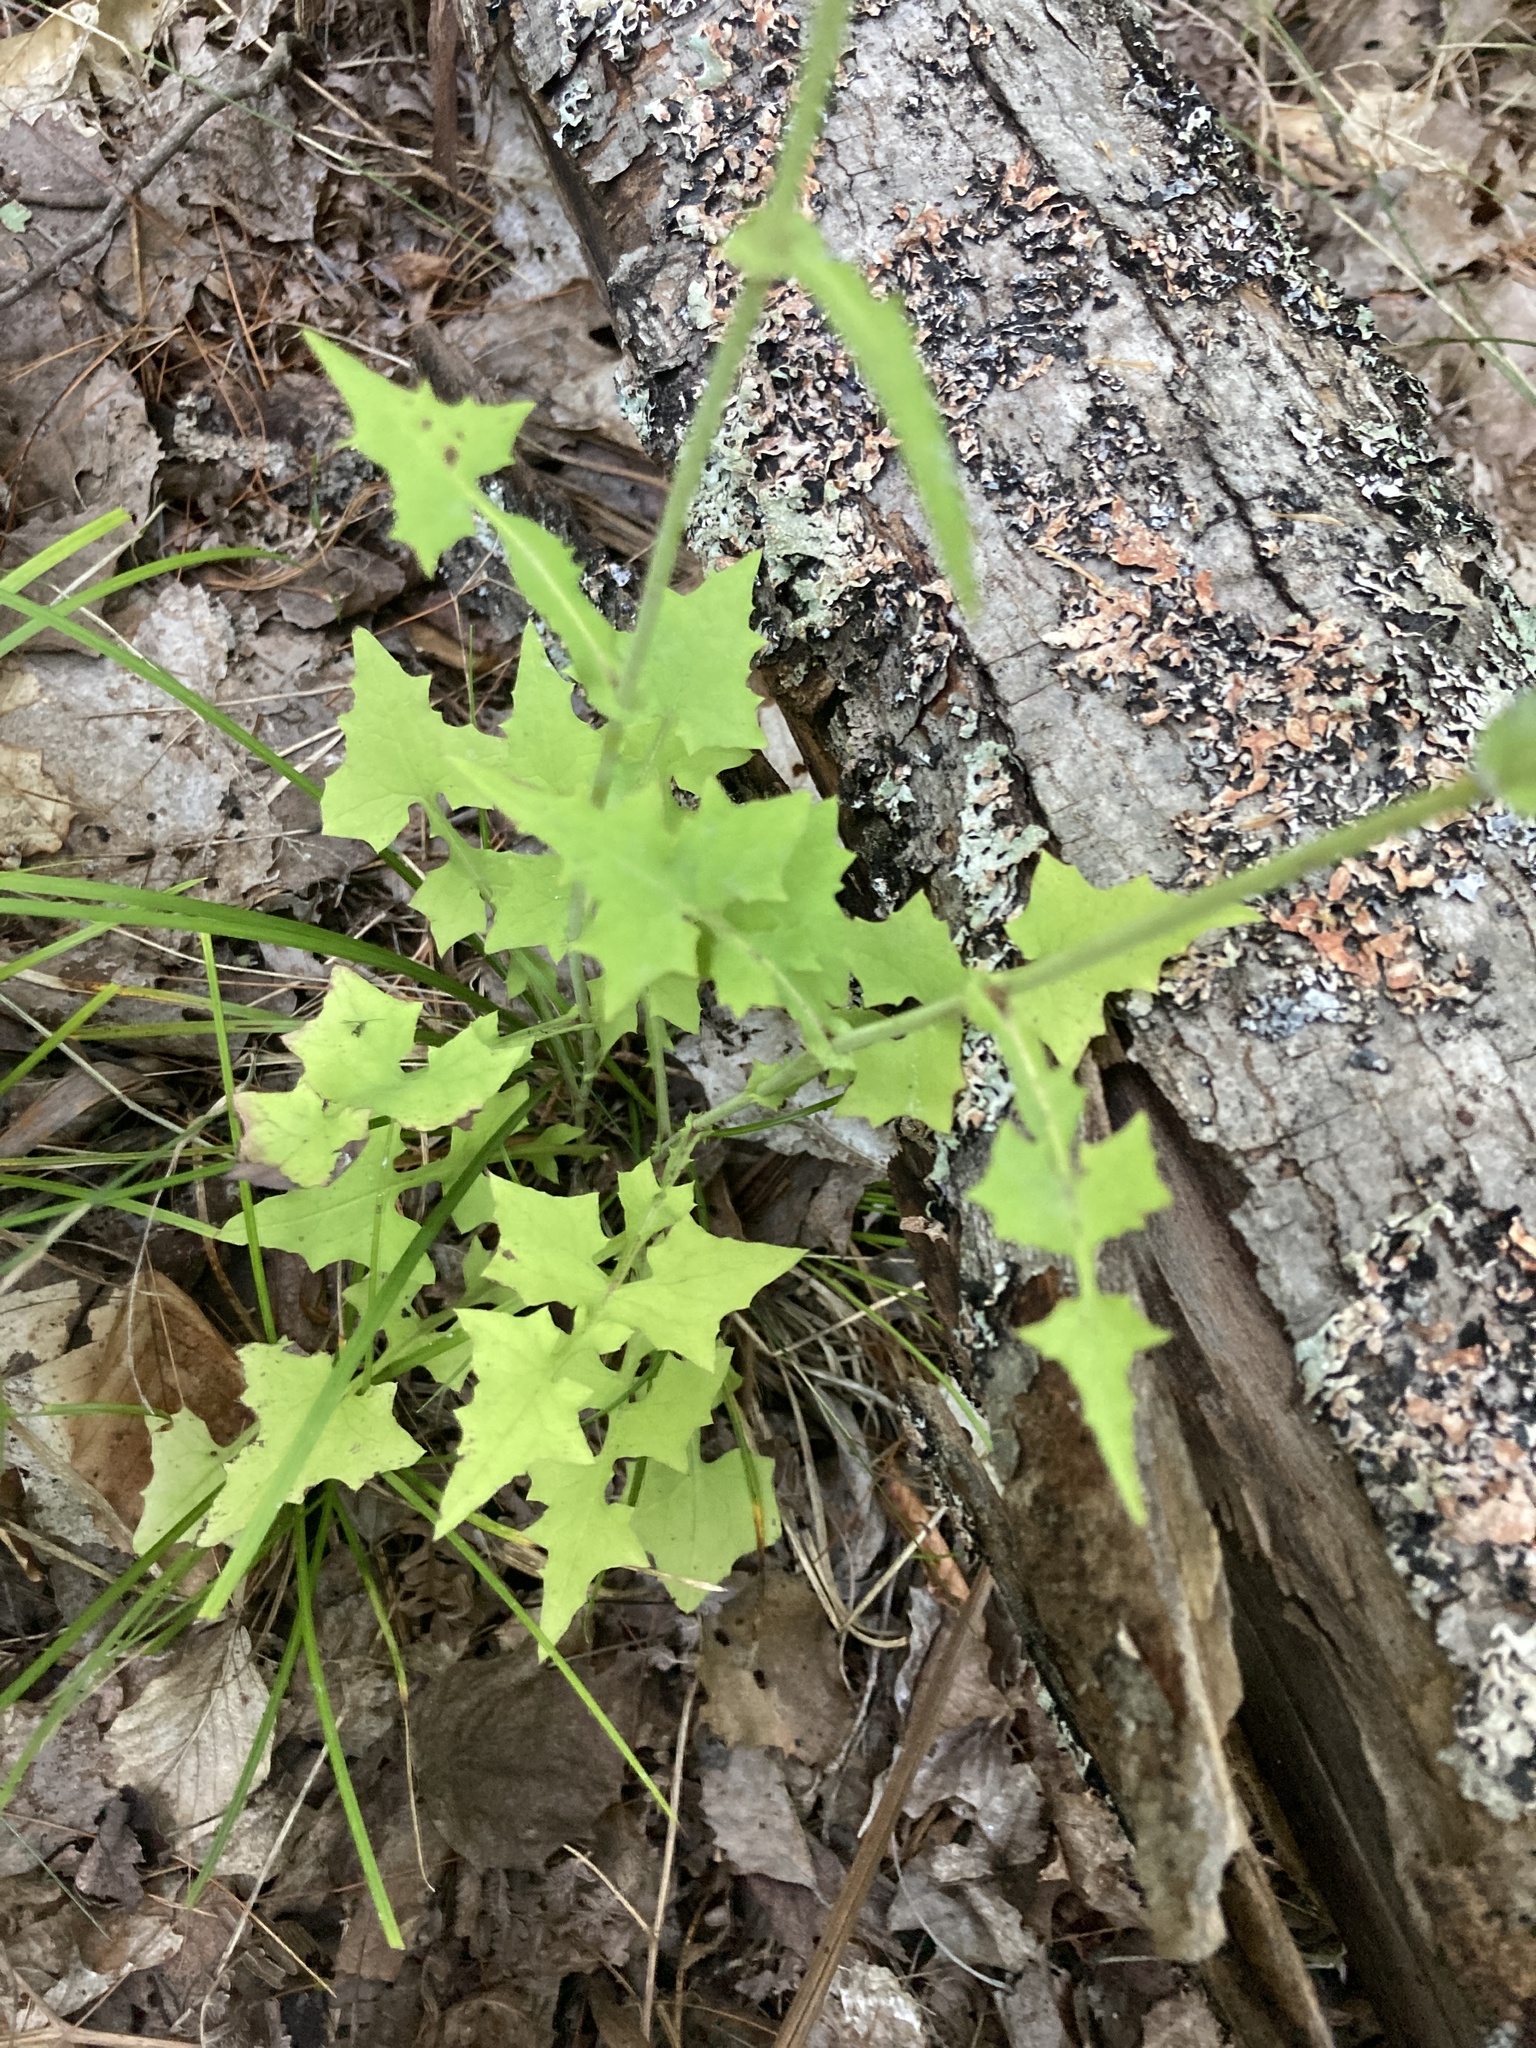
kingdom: Plantae
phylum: Tracheophyta
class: Magnoliopsida
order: Asterales
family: Asteraceae
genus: Mycelis
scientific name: Mycelis muralis
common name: Wall lettuce
